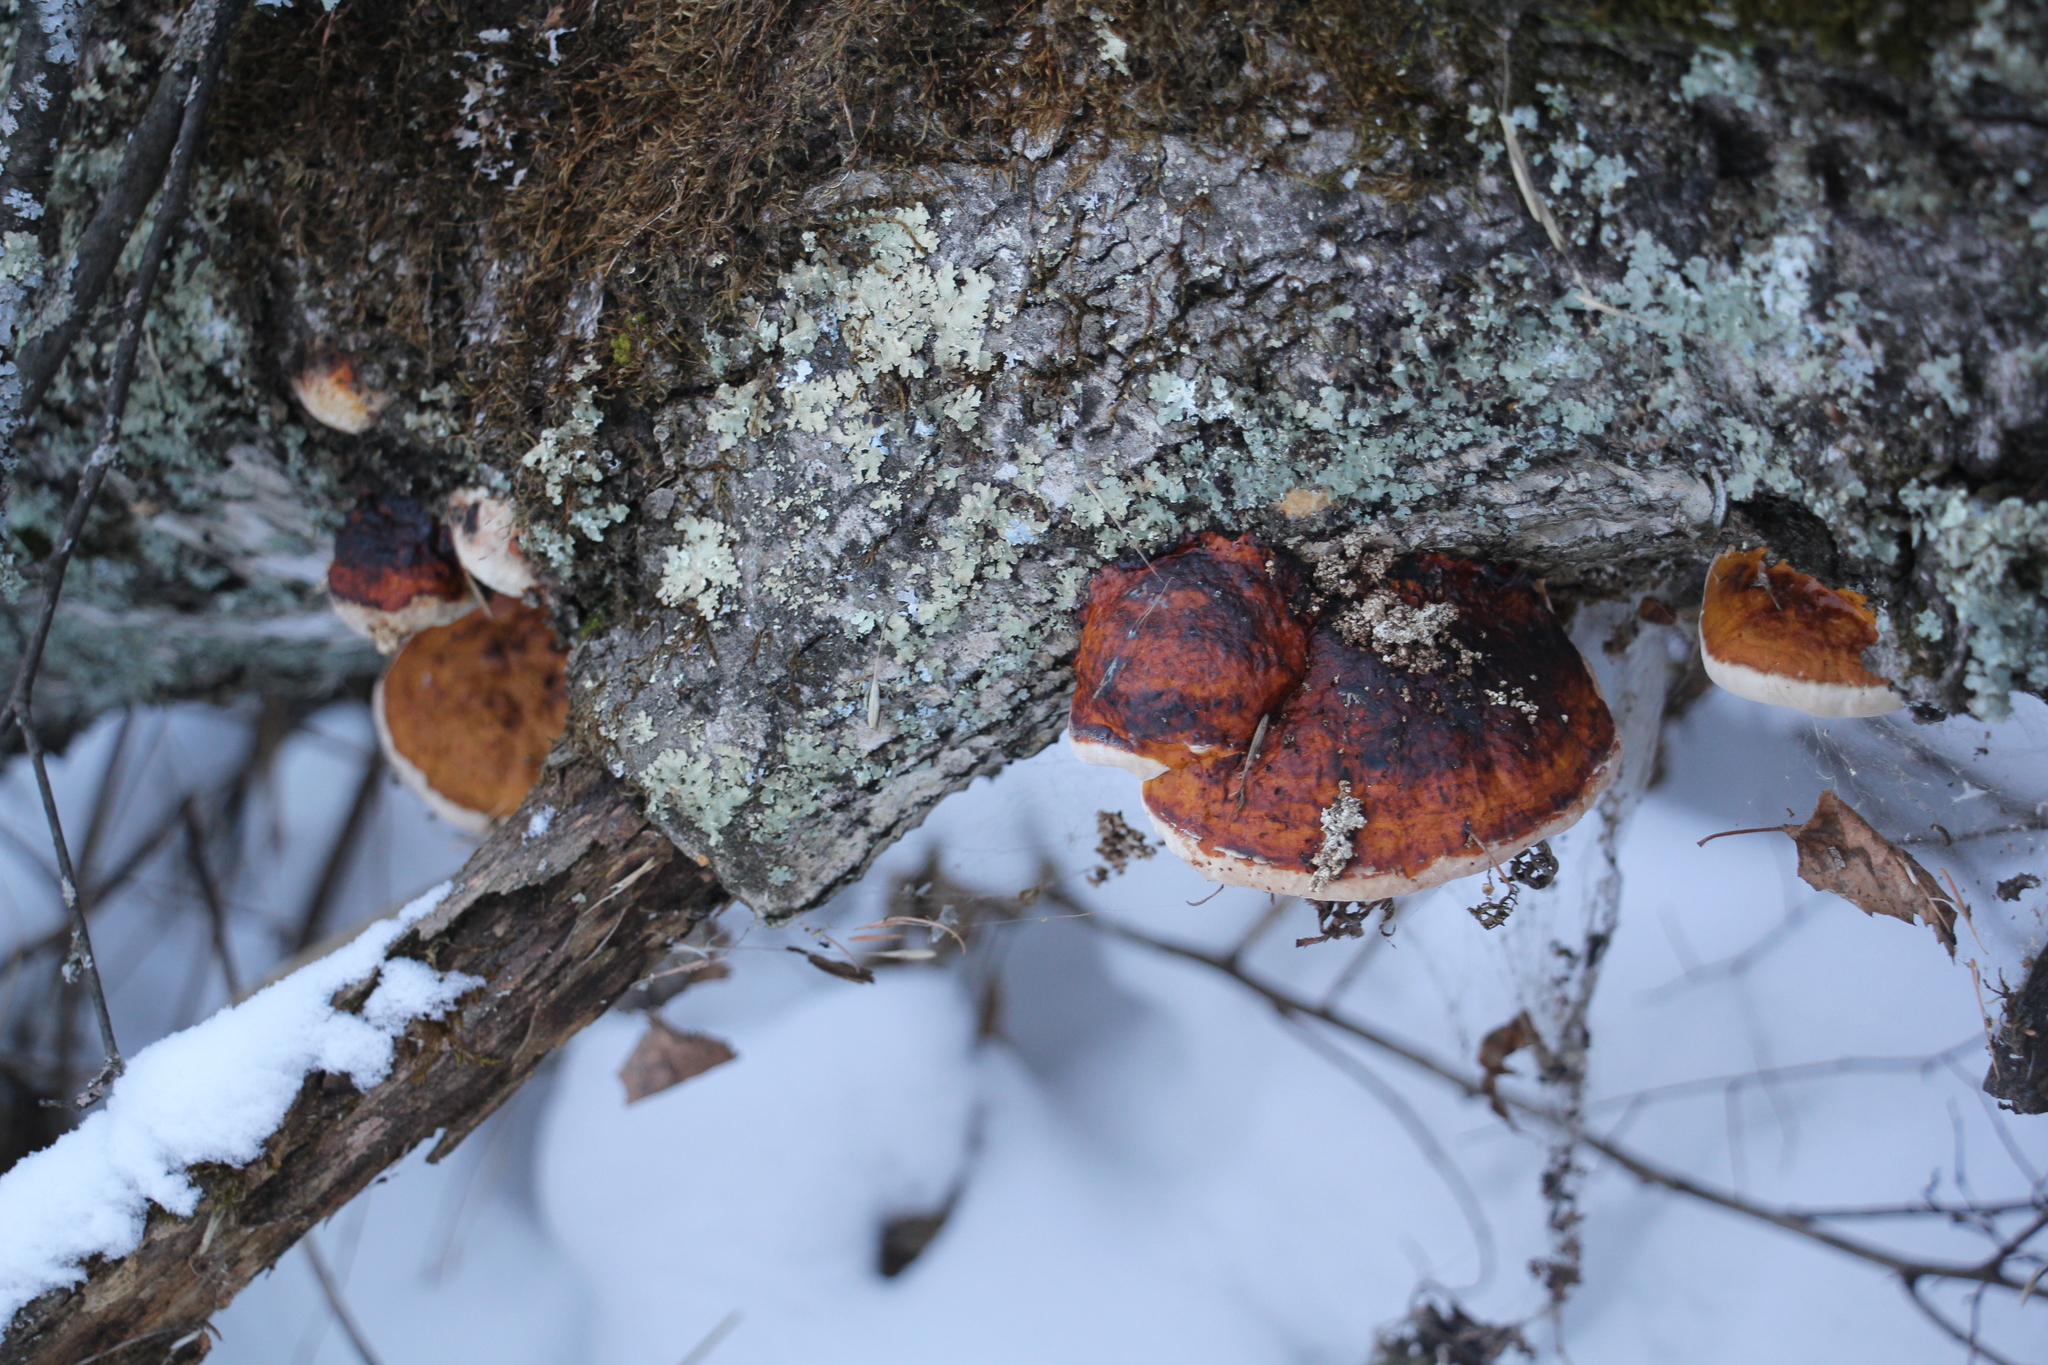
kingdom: Fungi
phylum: Basidiomycota
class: Agaricomycetes
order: Polyporales
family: Fomitopsidaceae
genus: Fomitopsis
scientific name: Fomitopsis pinicola
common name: Red-belted bracket
